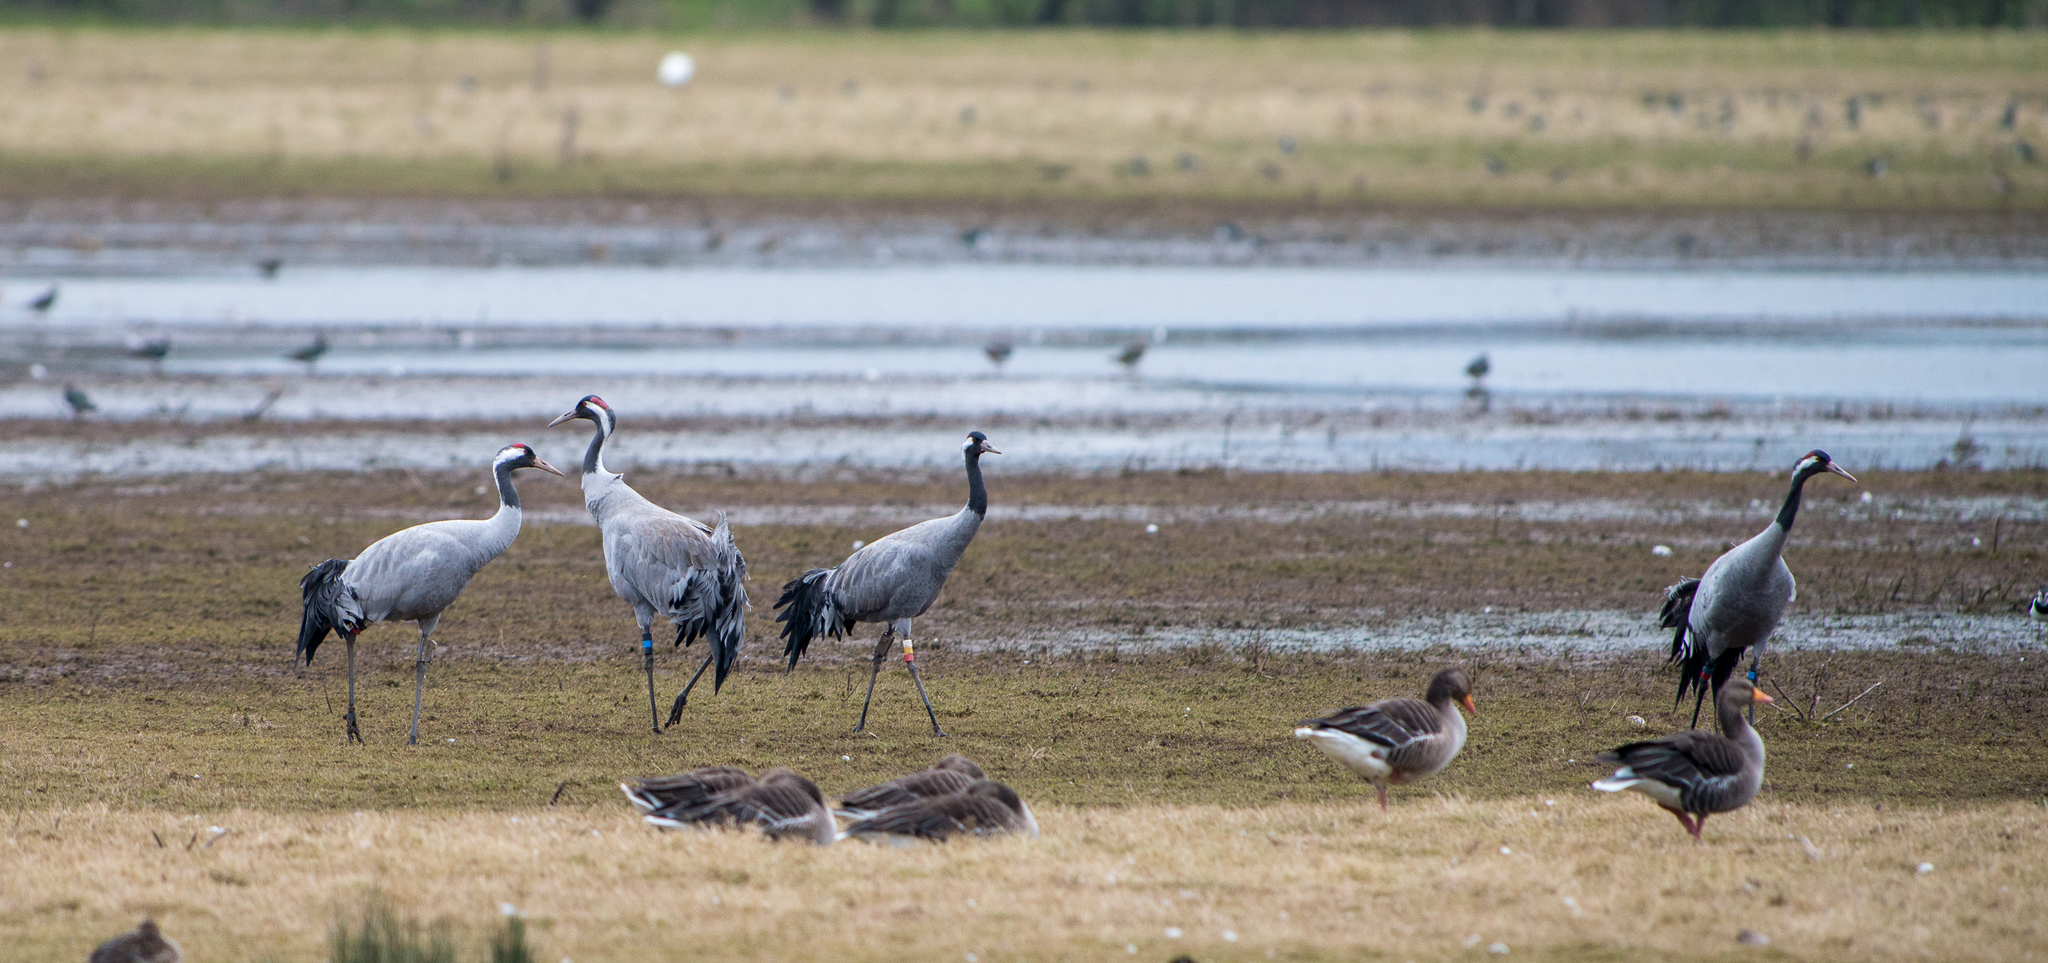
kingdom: Animalia
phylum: Chordata
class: Aves
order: Gruiformes
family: Gruidae
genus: Grus
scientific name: Grus grus
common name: Common crane
